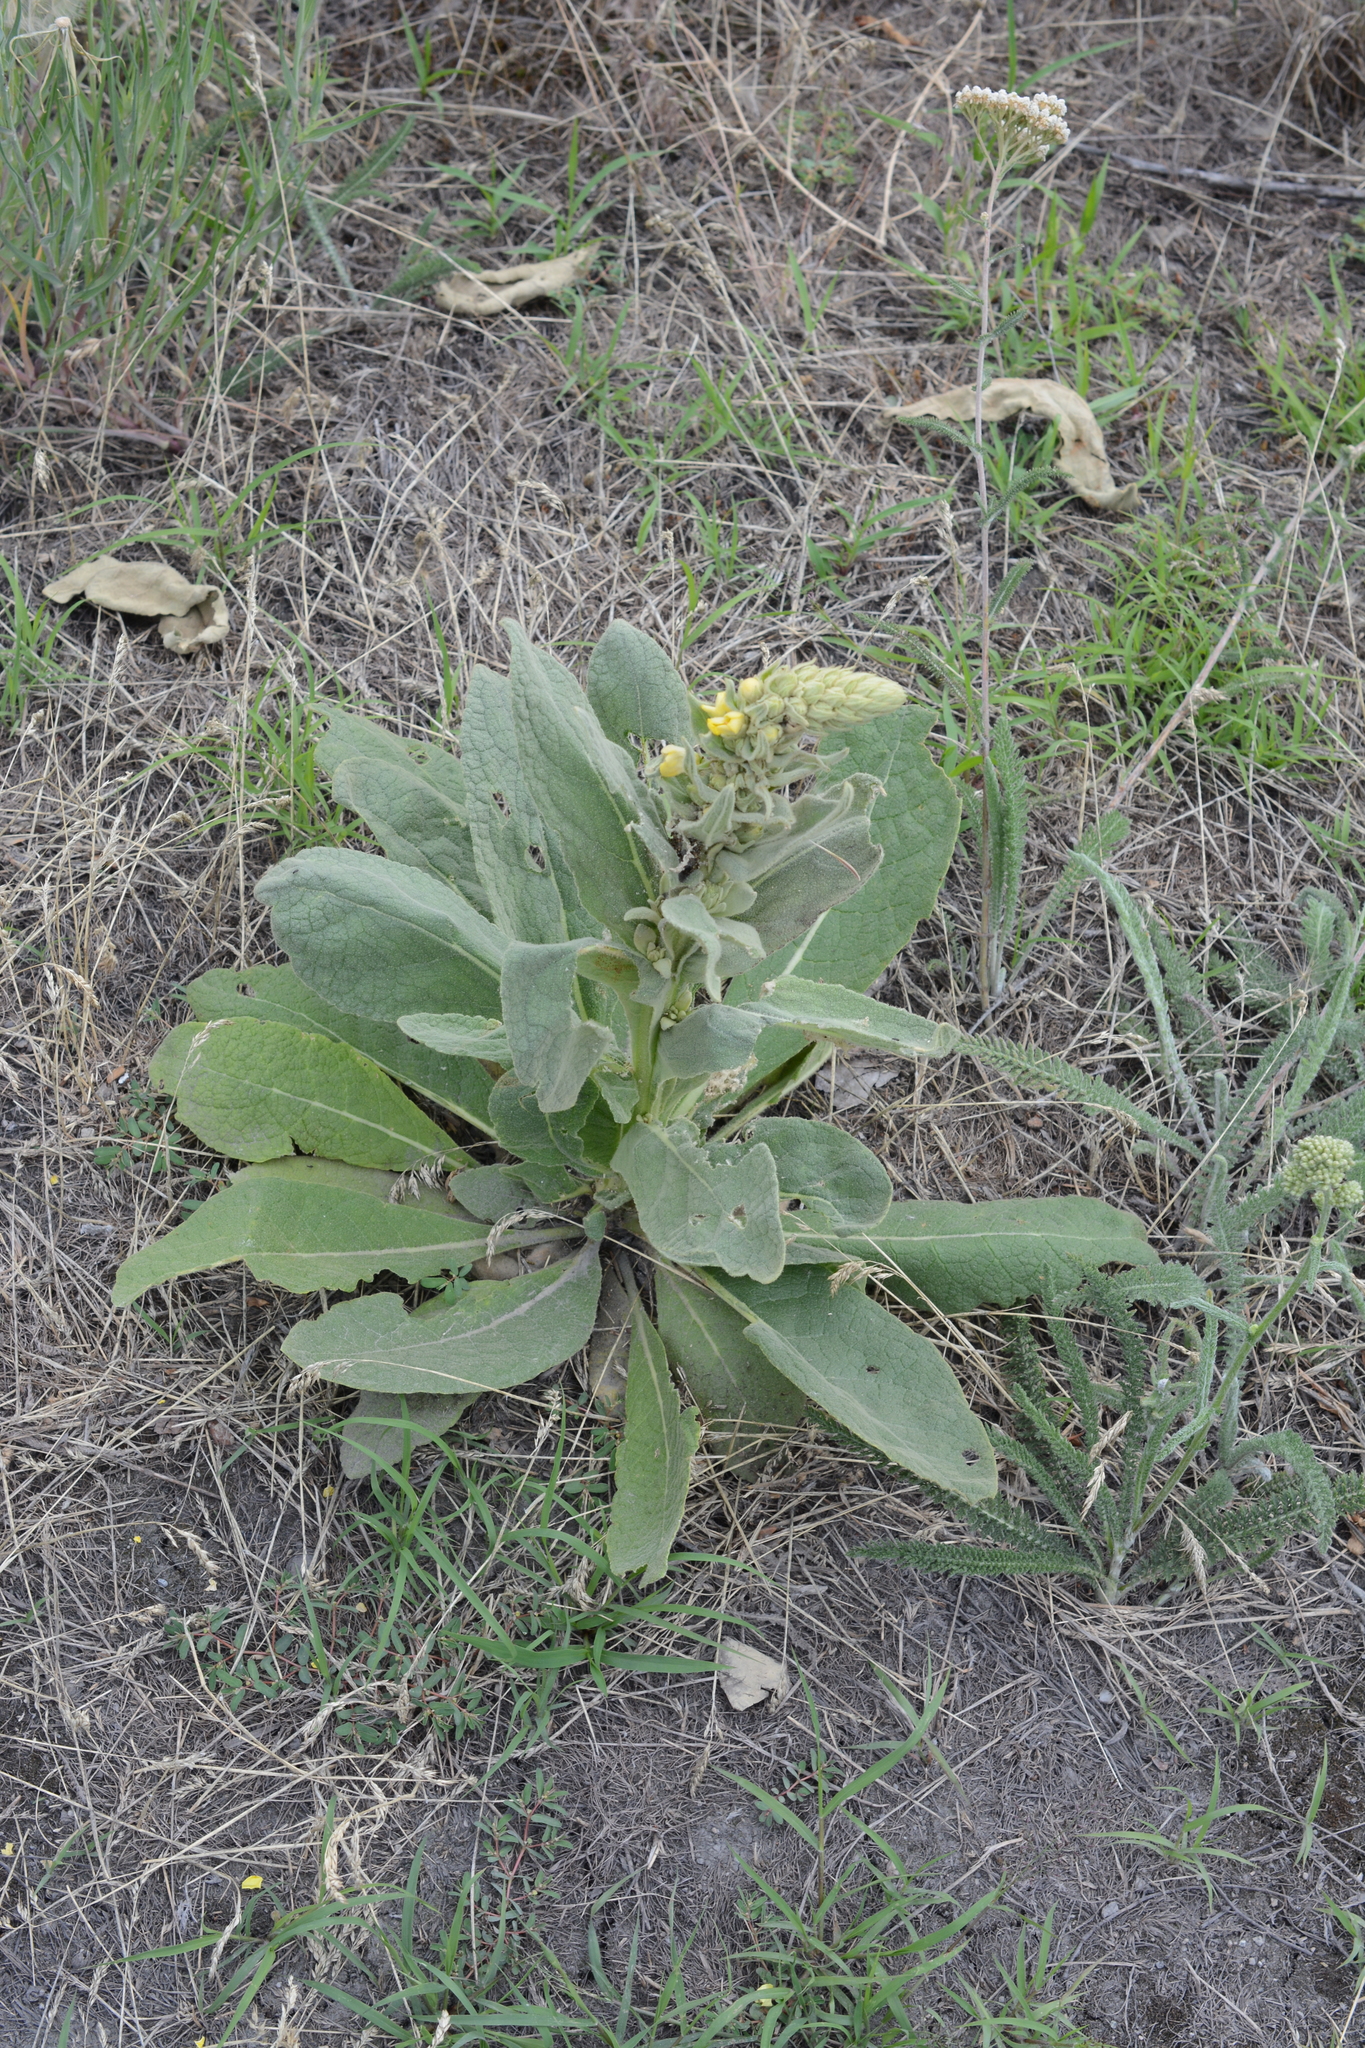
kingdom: Plantae
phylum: Tracheophyta
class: Magnoliopsida
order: Lamiales
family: Scrophulariaceae
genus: Verbascum
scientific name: Verbascum thapsus
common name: Common mullein
